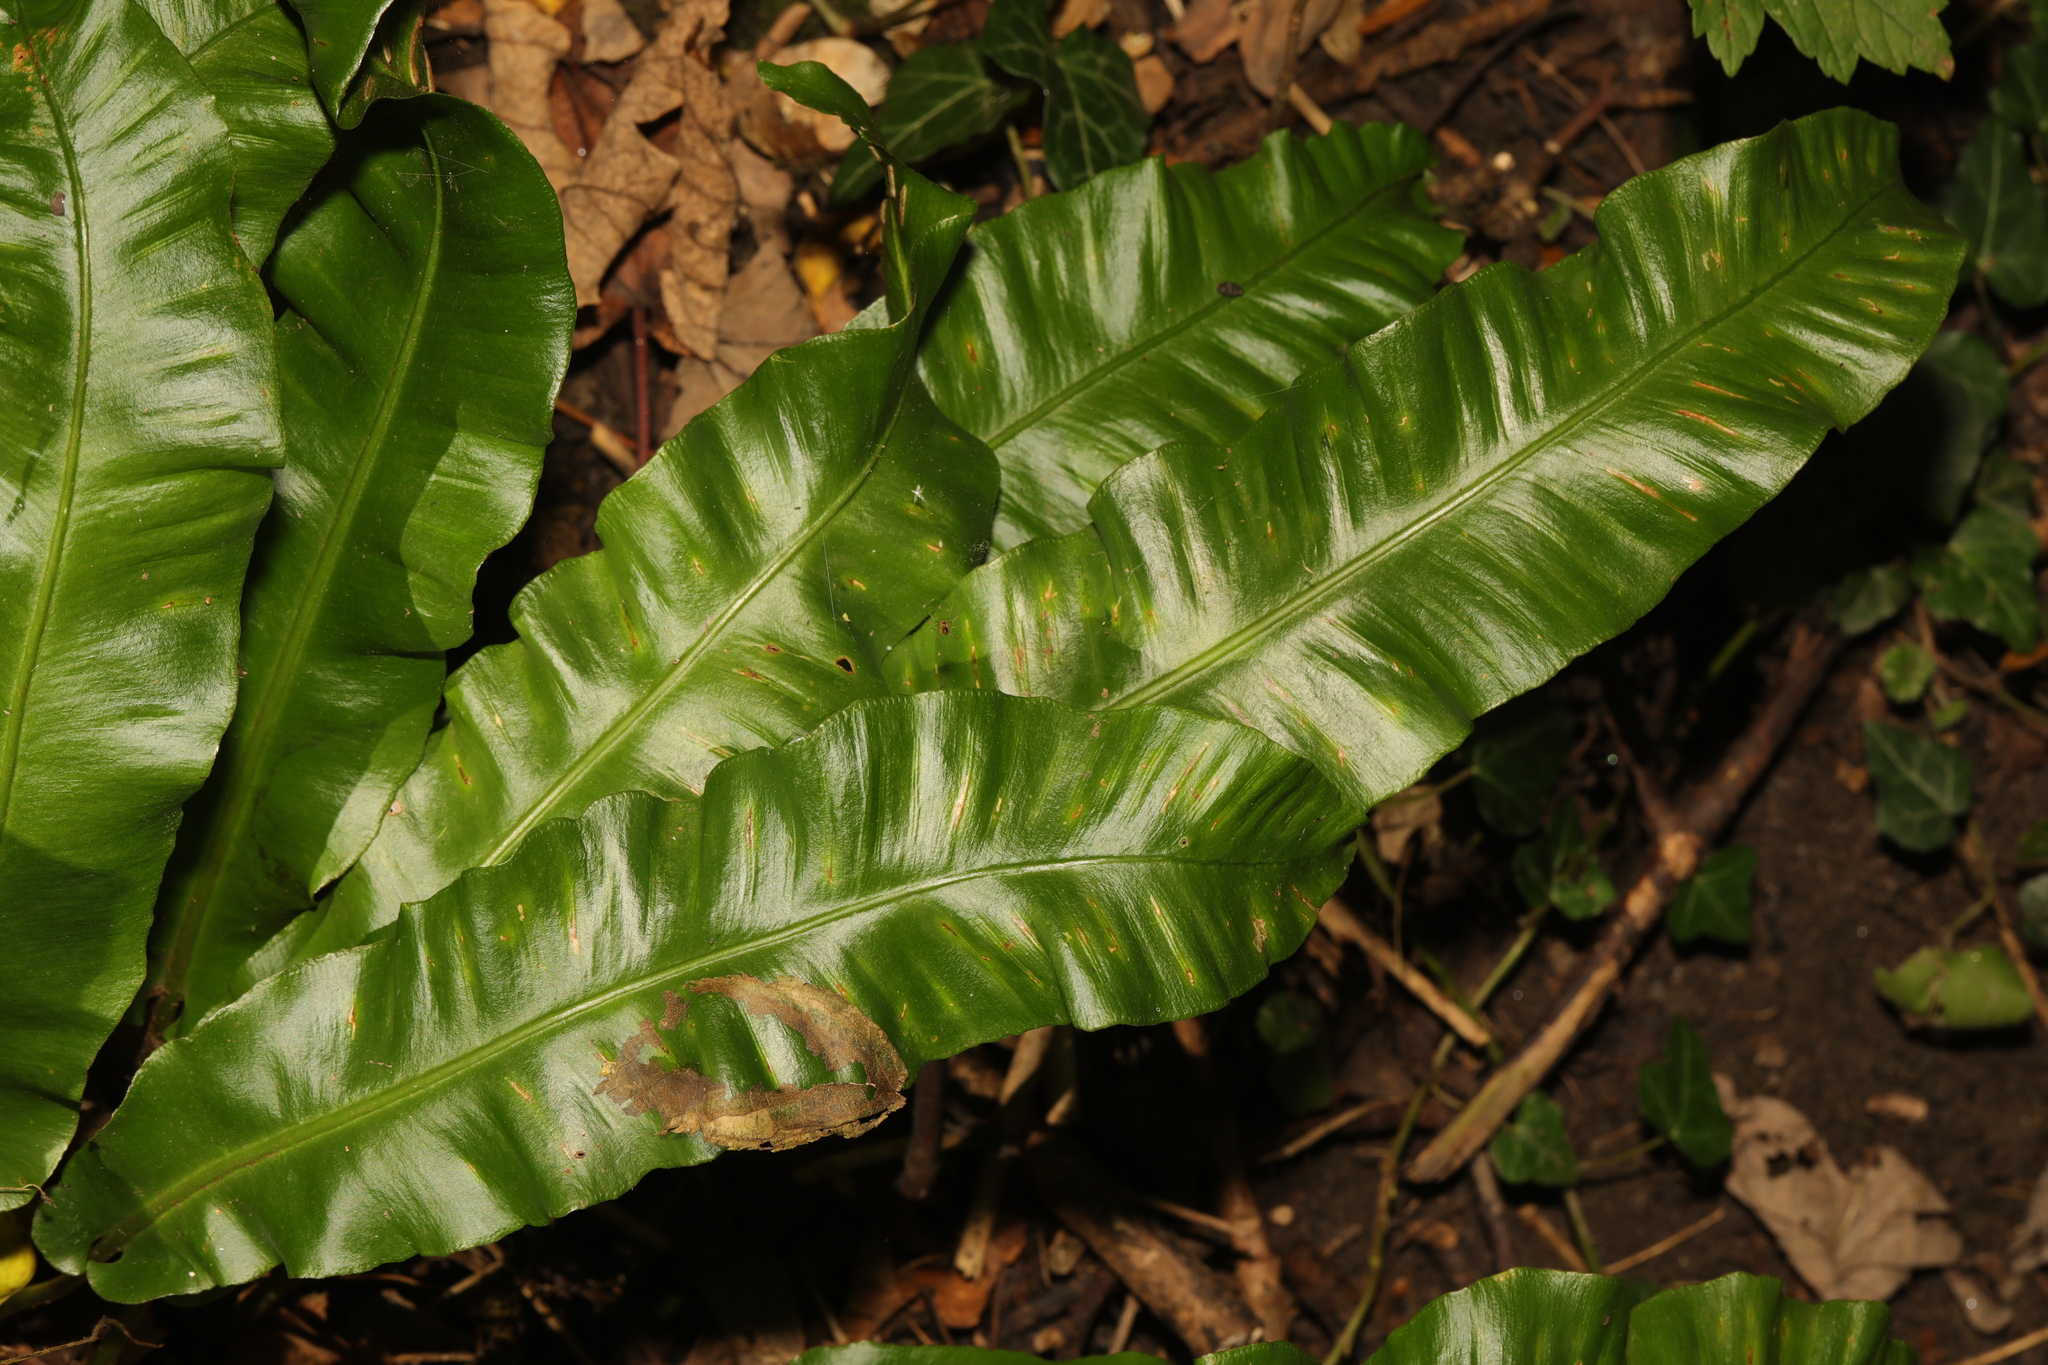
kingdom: Plantae
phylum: Tracheophyta
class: Polypodiopsida
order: Polypodiales
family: Aspleniaceae
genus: Asplenium
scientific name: Asplenium scolopendrium
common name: Hart's-tongue fern
